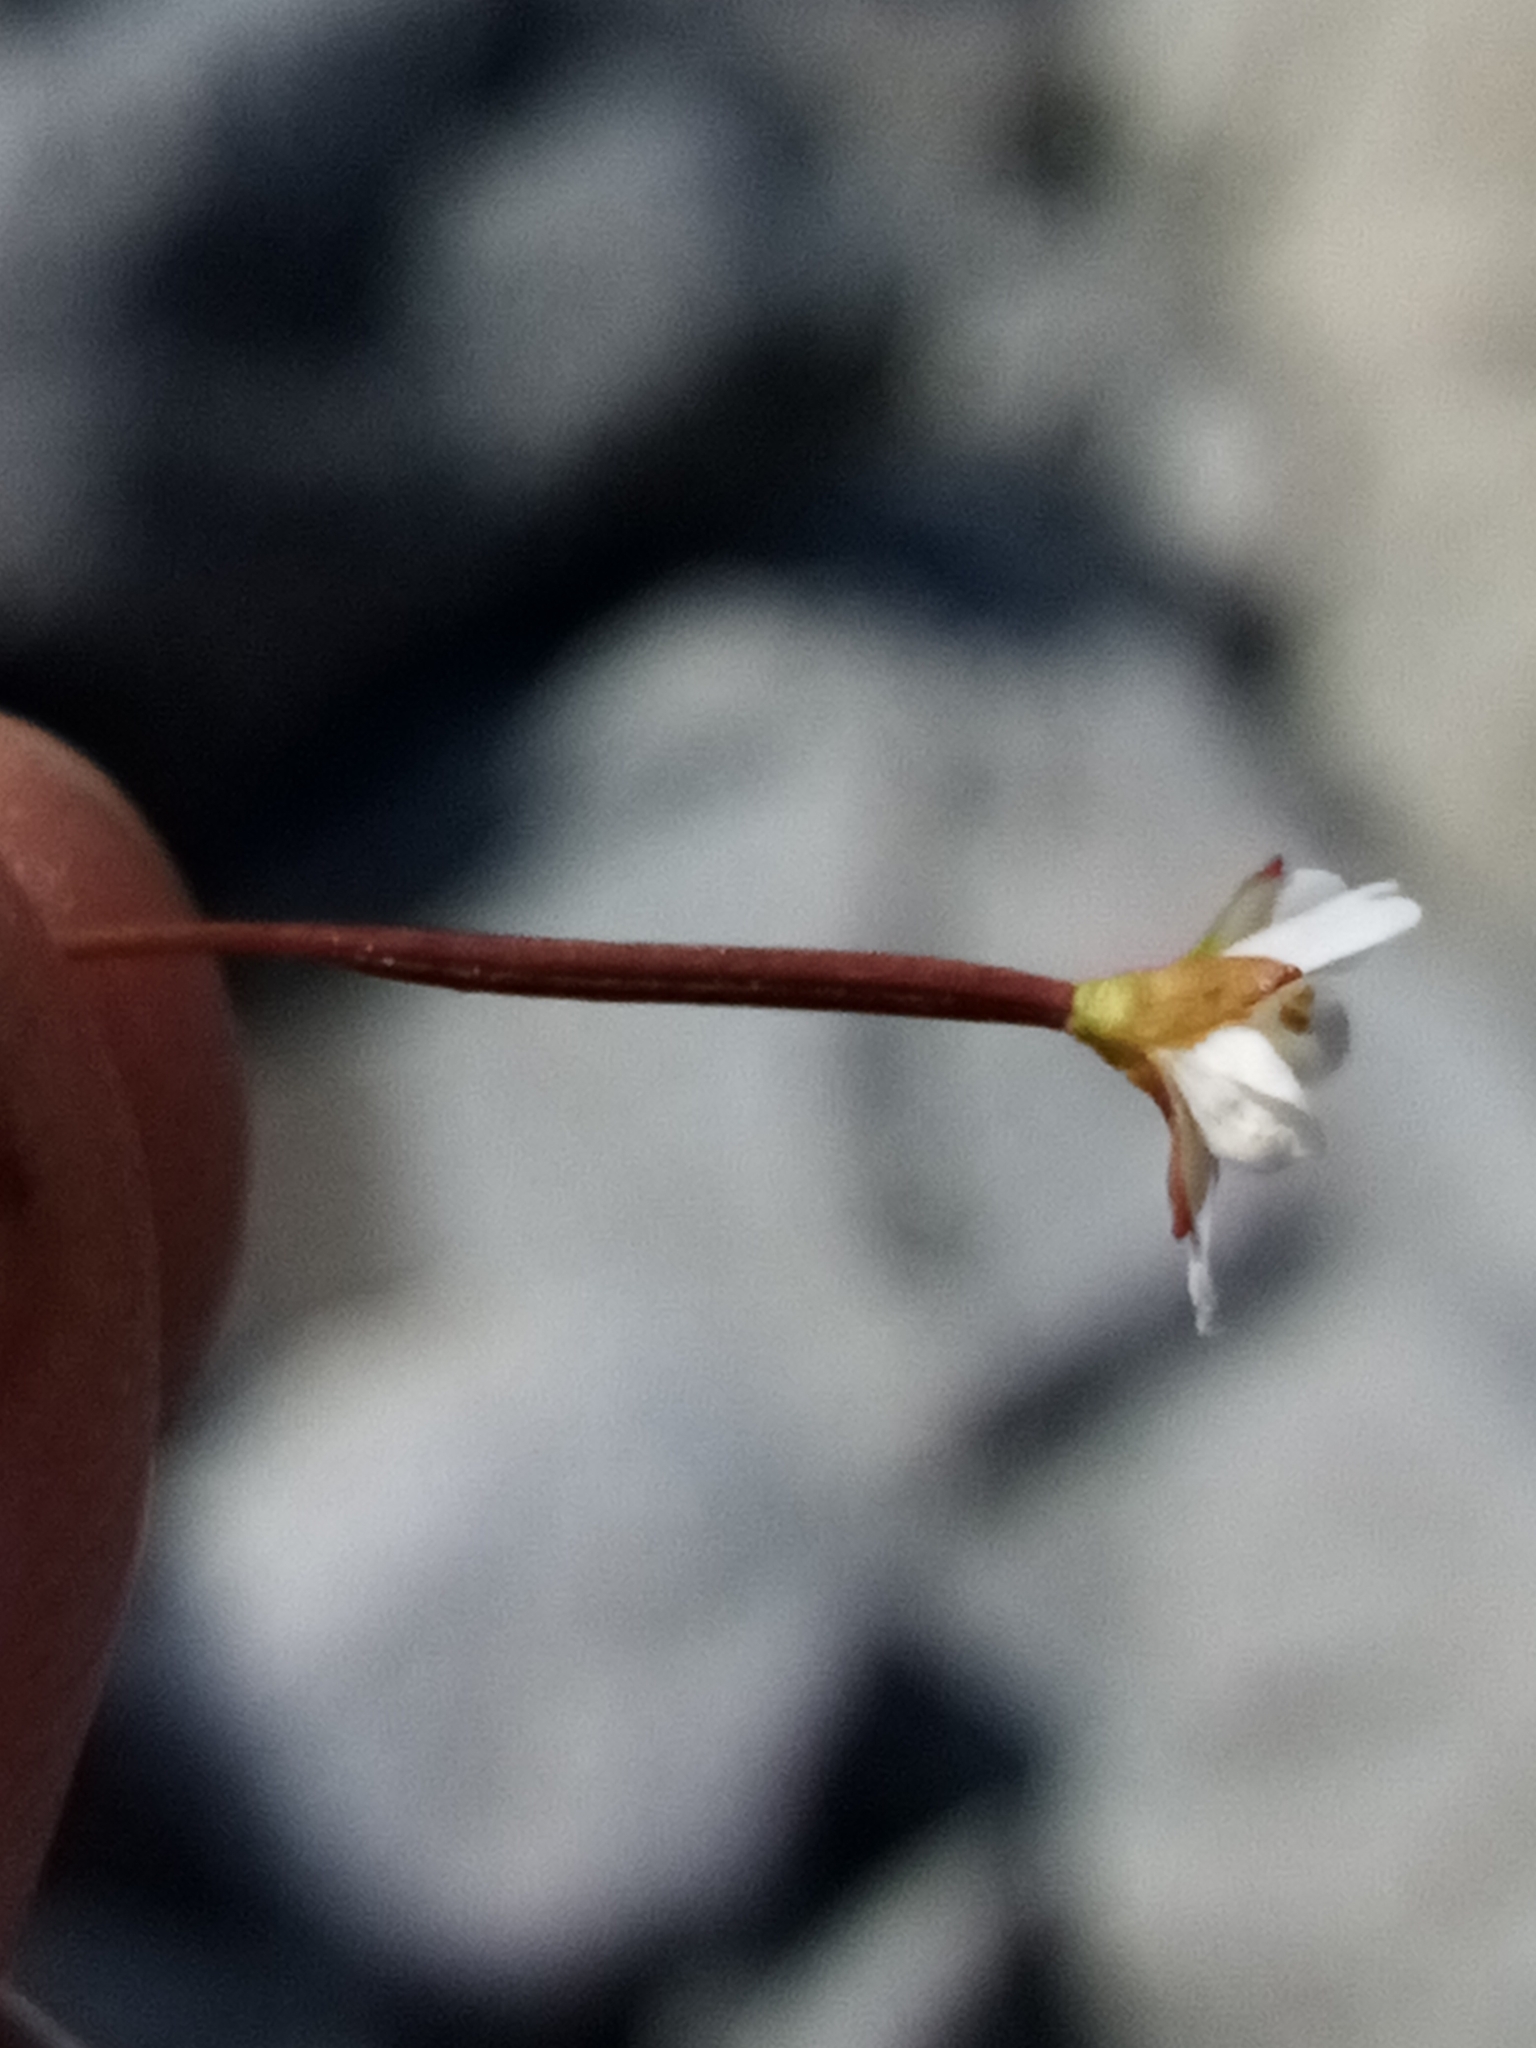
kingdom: Plantae
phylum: Tracheophyta
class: Magnoliopsida
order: Myrtales
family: Onagraceae
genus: Epilobium
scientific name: Epilobium brunnescens
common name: New zealand willowherb
